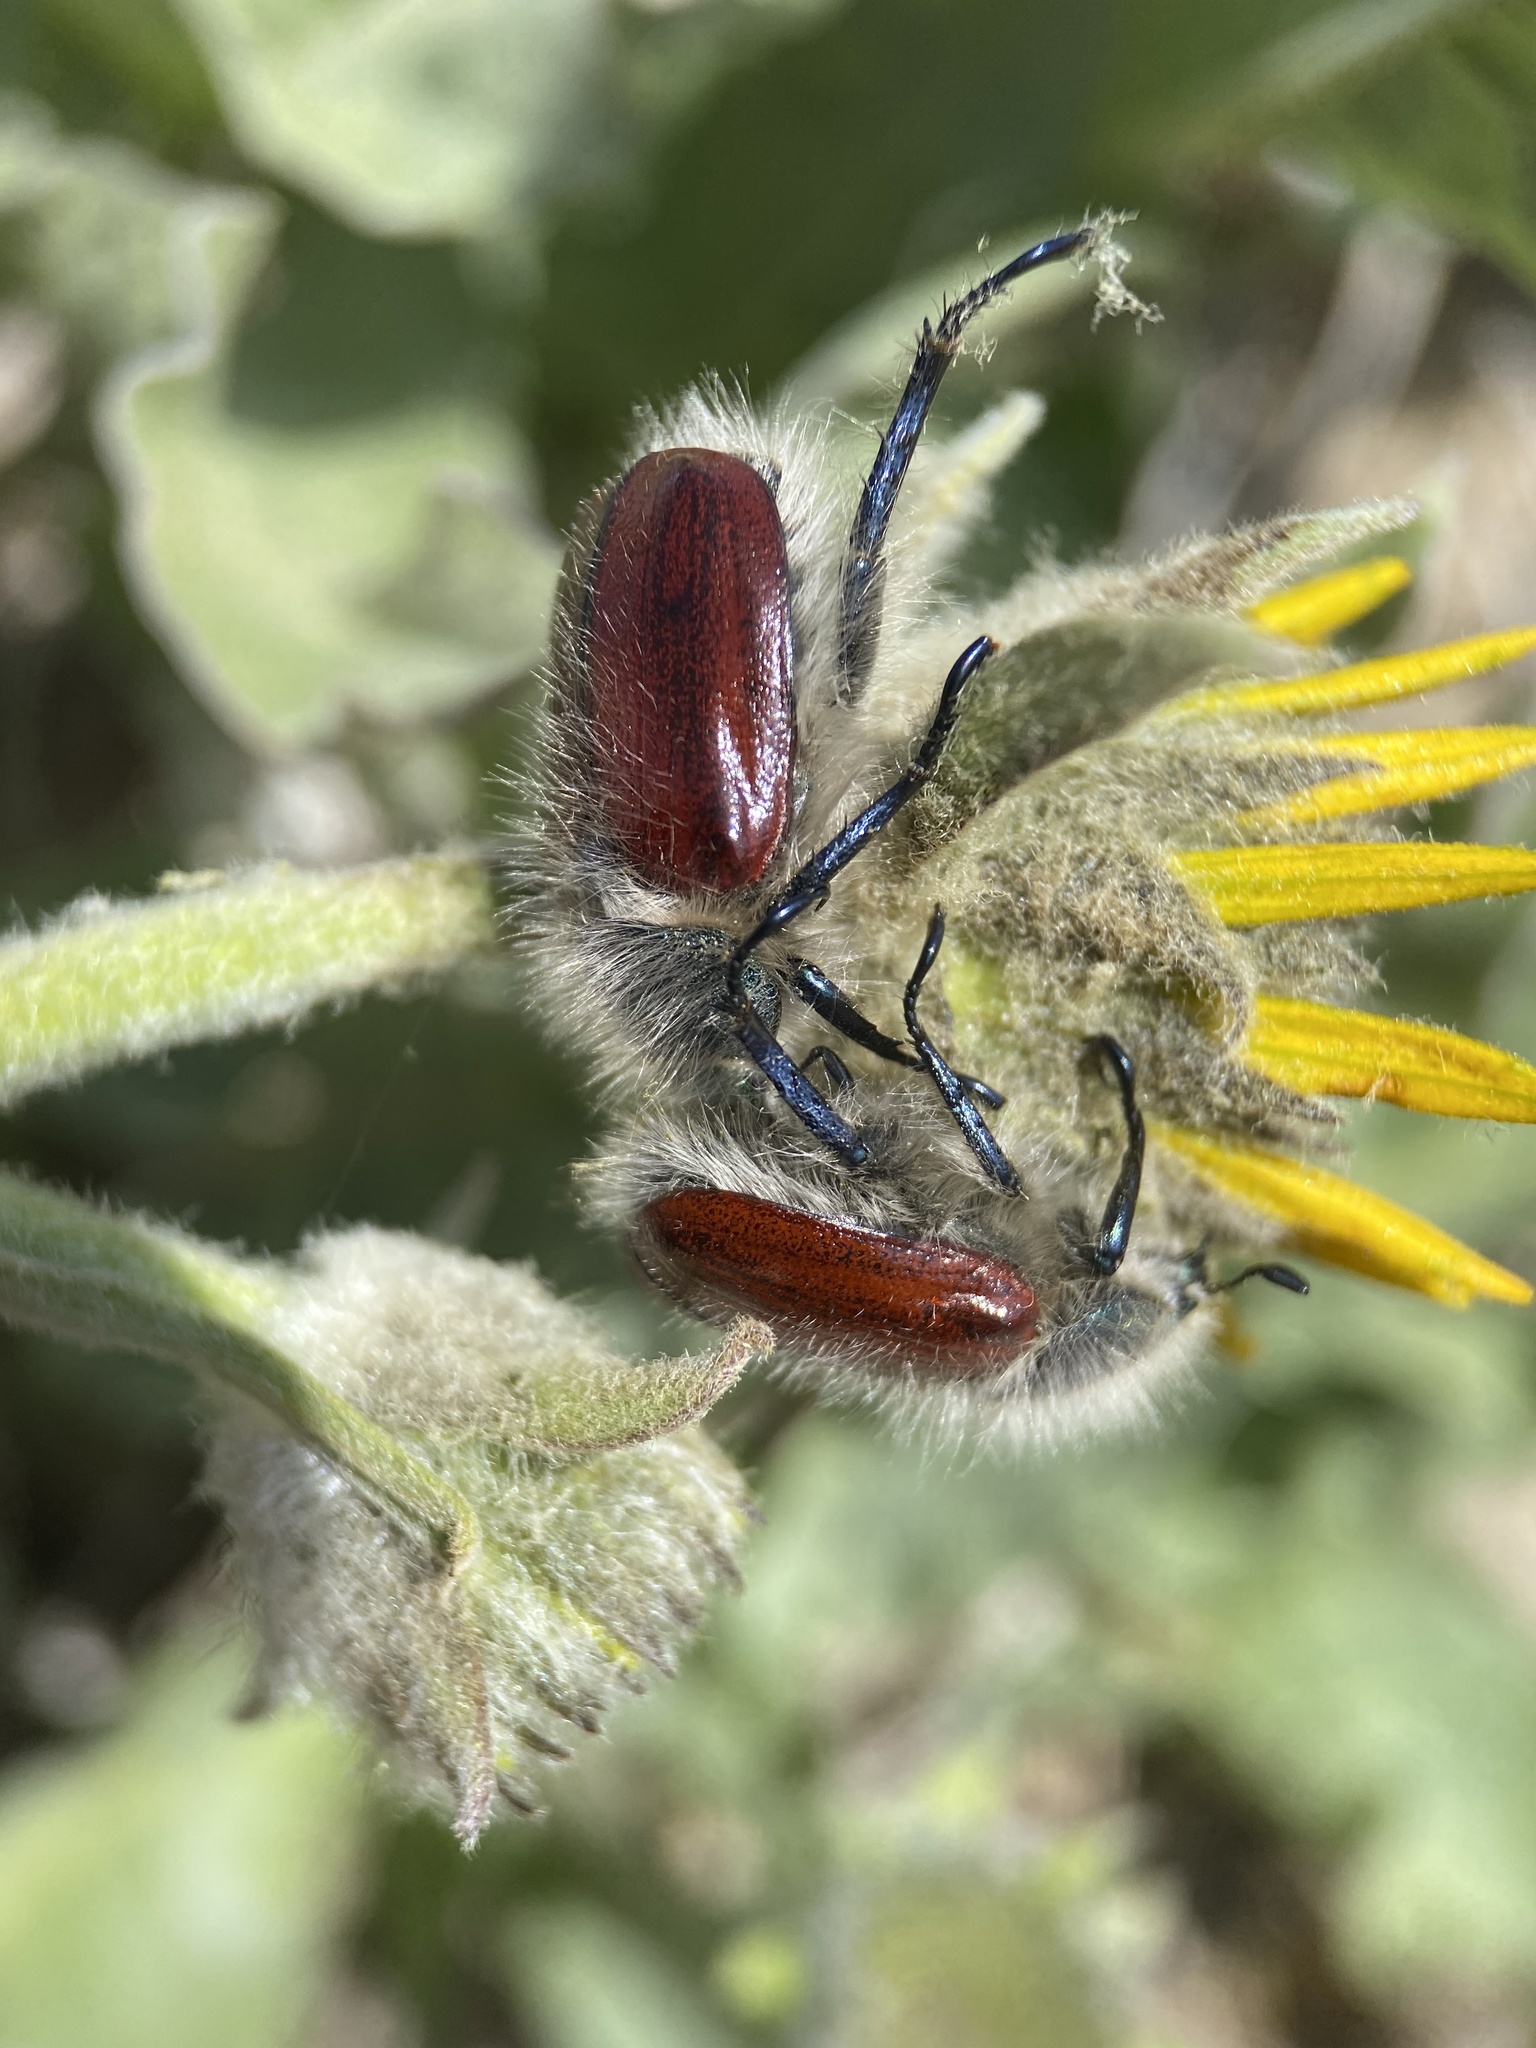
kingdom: Animalia
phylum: Arthropoda
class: Insecta
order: Coleoptera
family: Scarabaeidae
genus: Paracotalpa
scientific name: Paracotalpa granicollis
